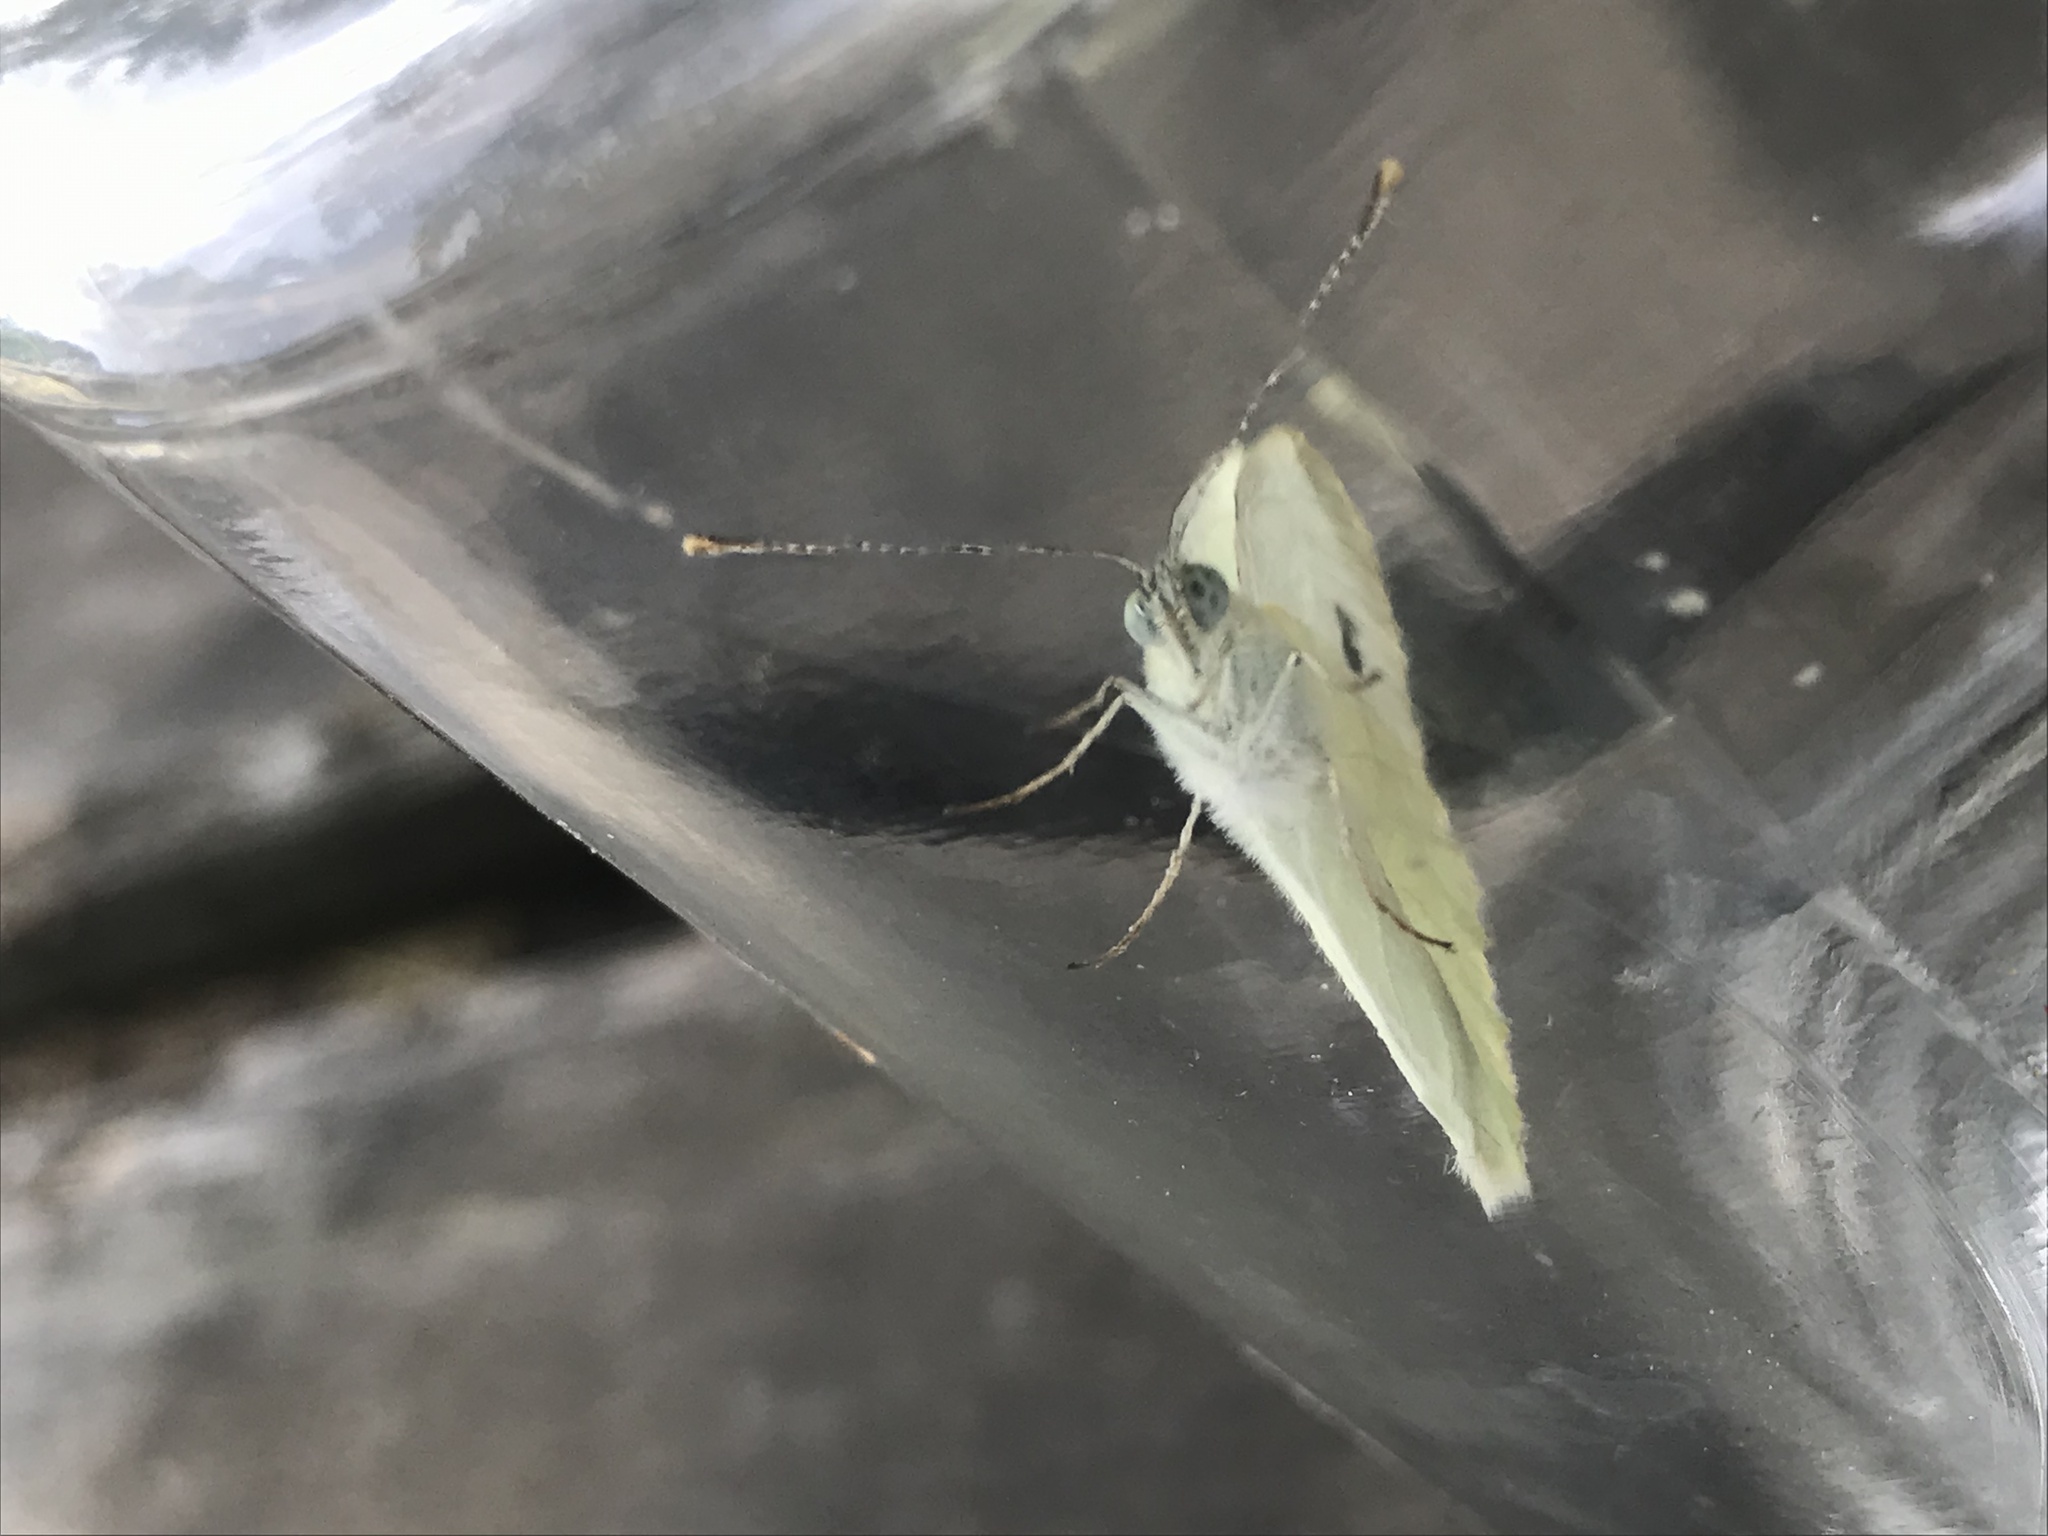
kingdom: Animalia
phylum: Arthropoda
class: Insecta
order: Lepidoptera
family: Pieridae
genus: Pieris
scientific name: Pieris rapae
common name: Small white
